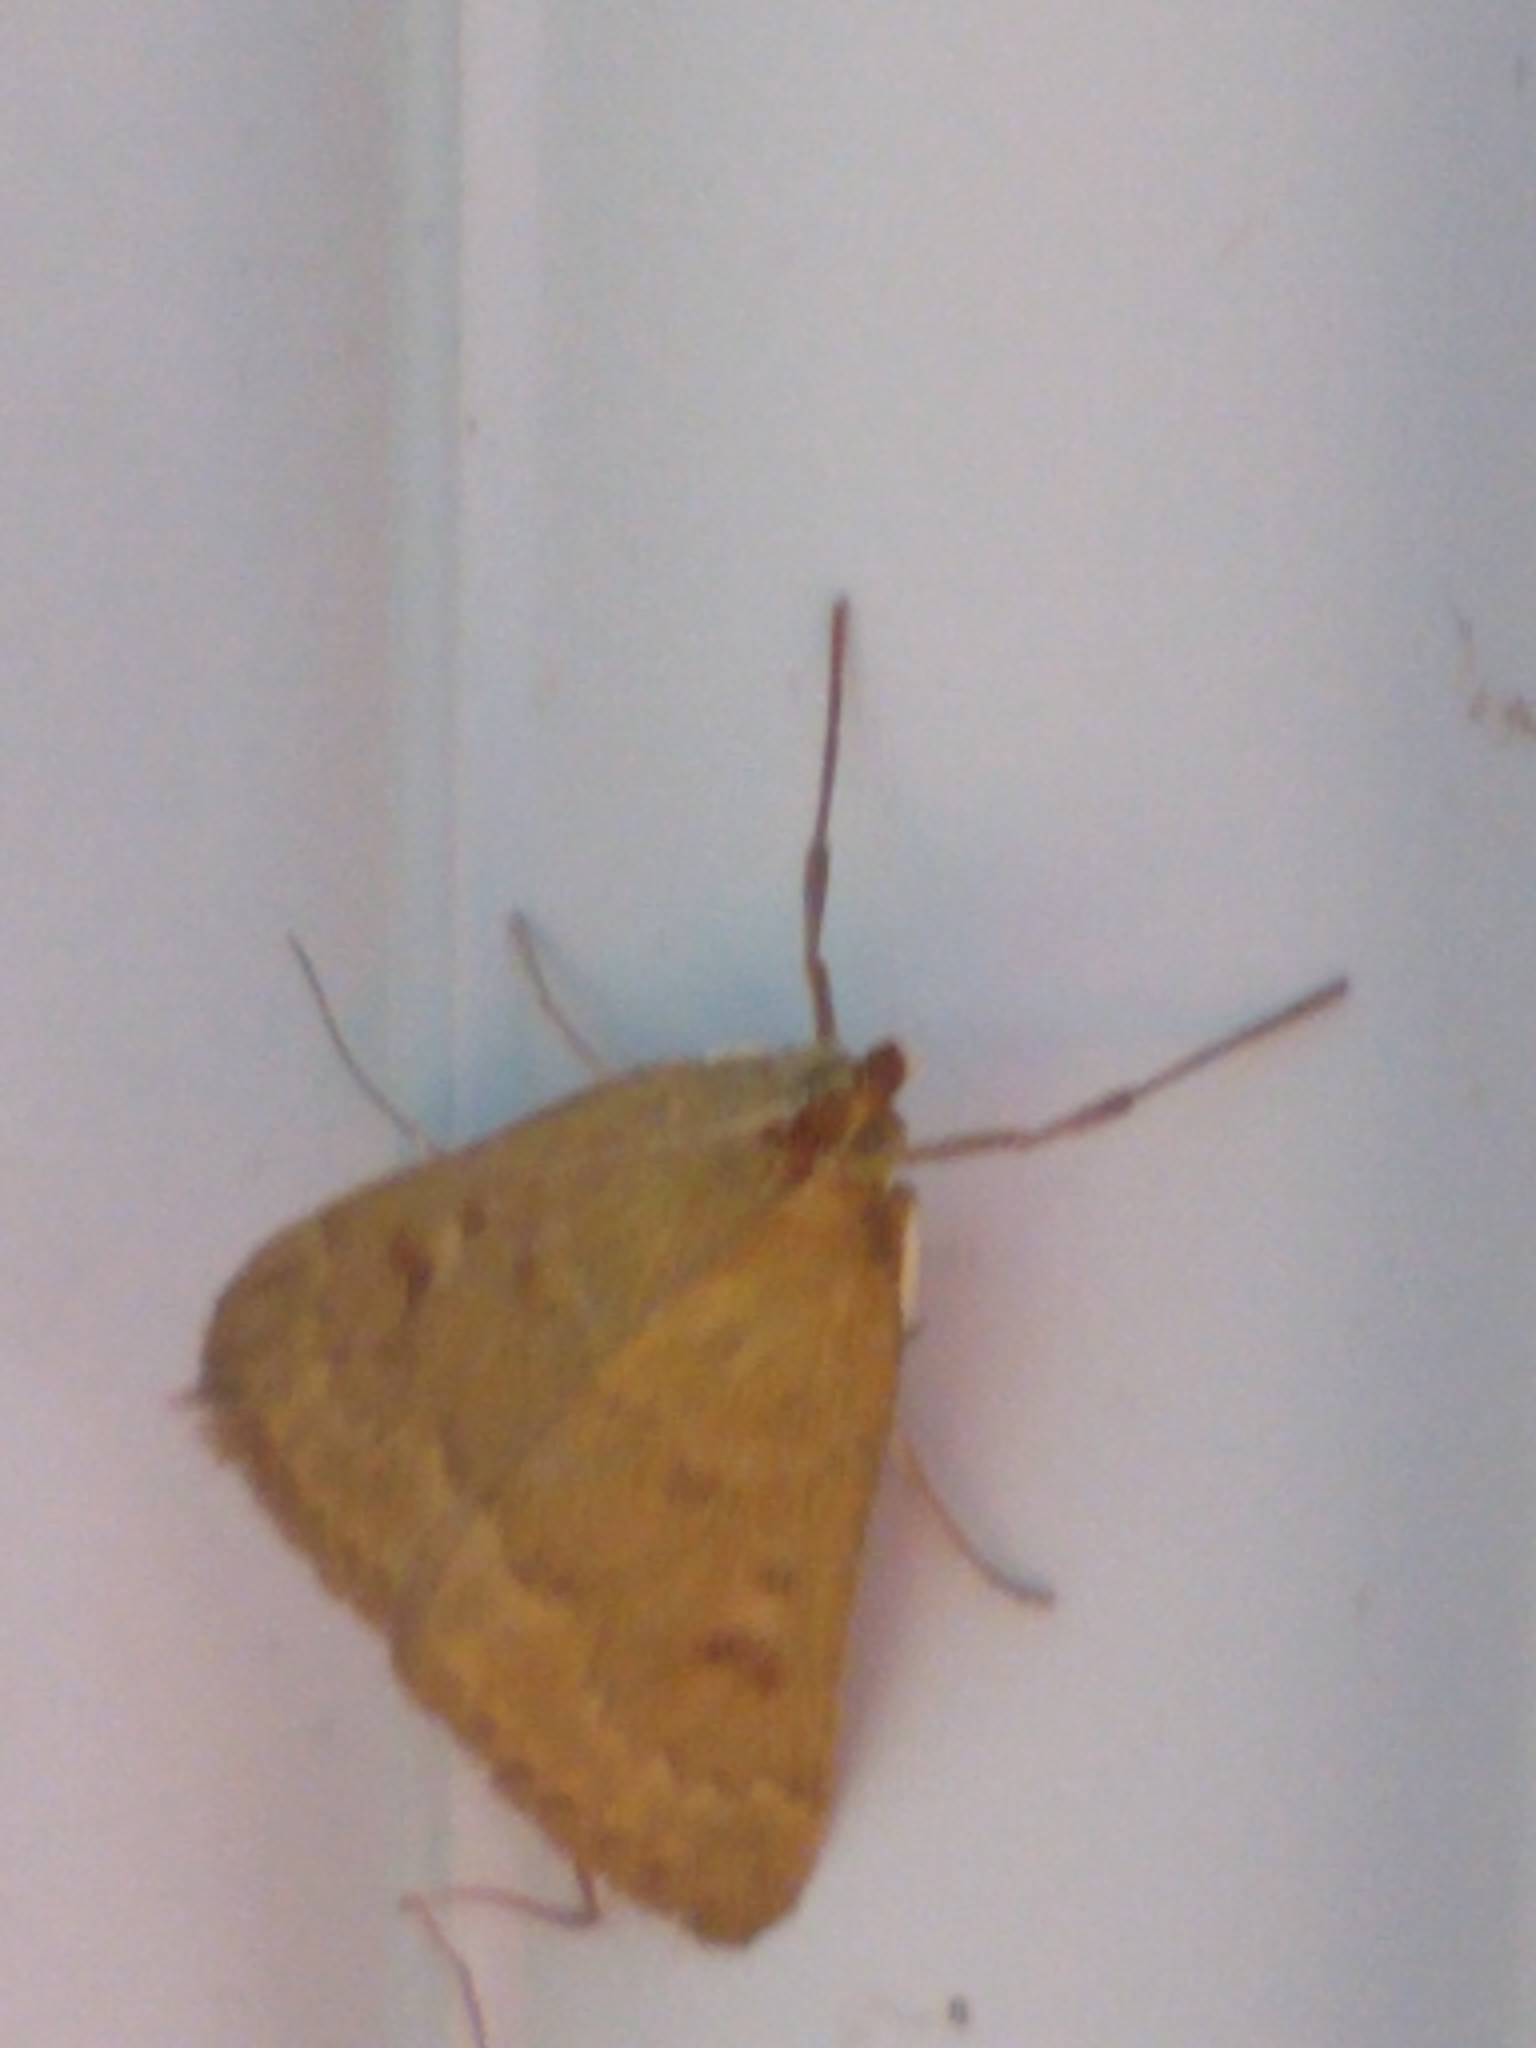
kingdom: Animalia
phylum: Arthropoda
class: Insecta
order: Lepidoptera
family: Crambidae
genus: Achyra
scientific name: Achyra rantalis
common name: Garden webworm
